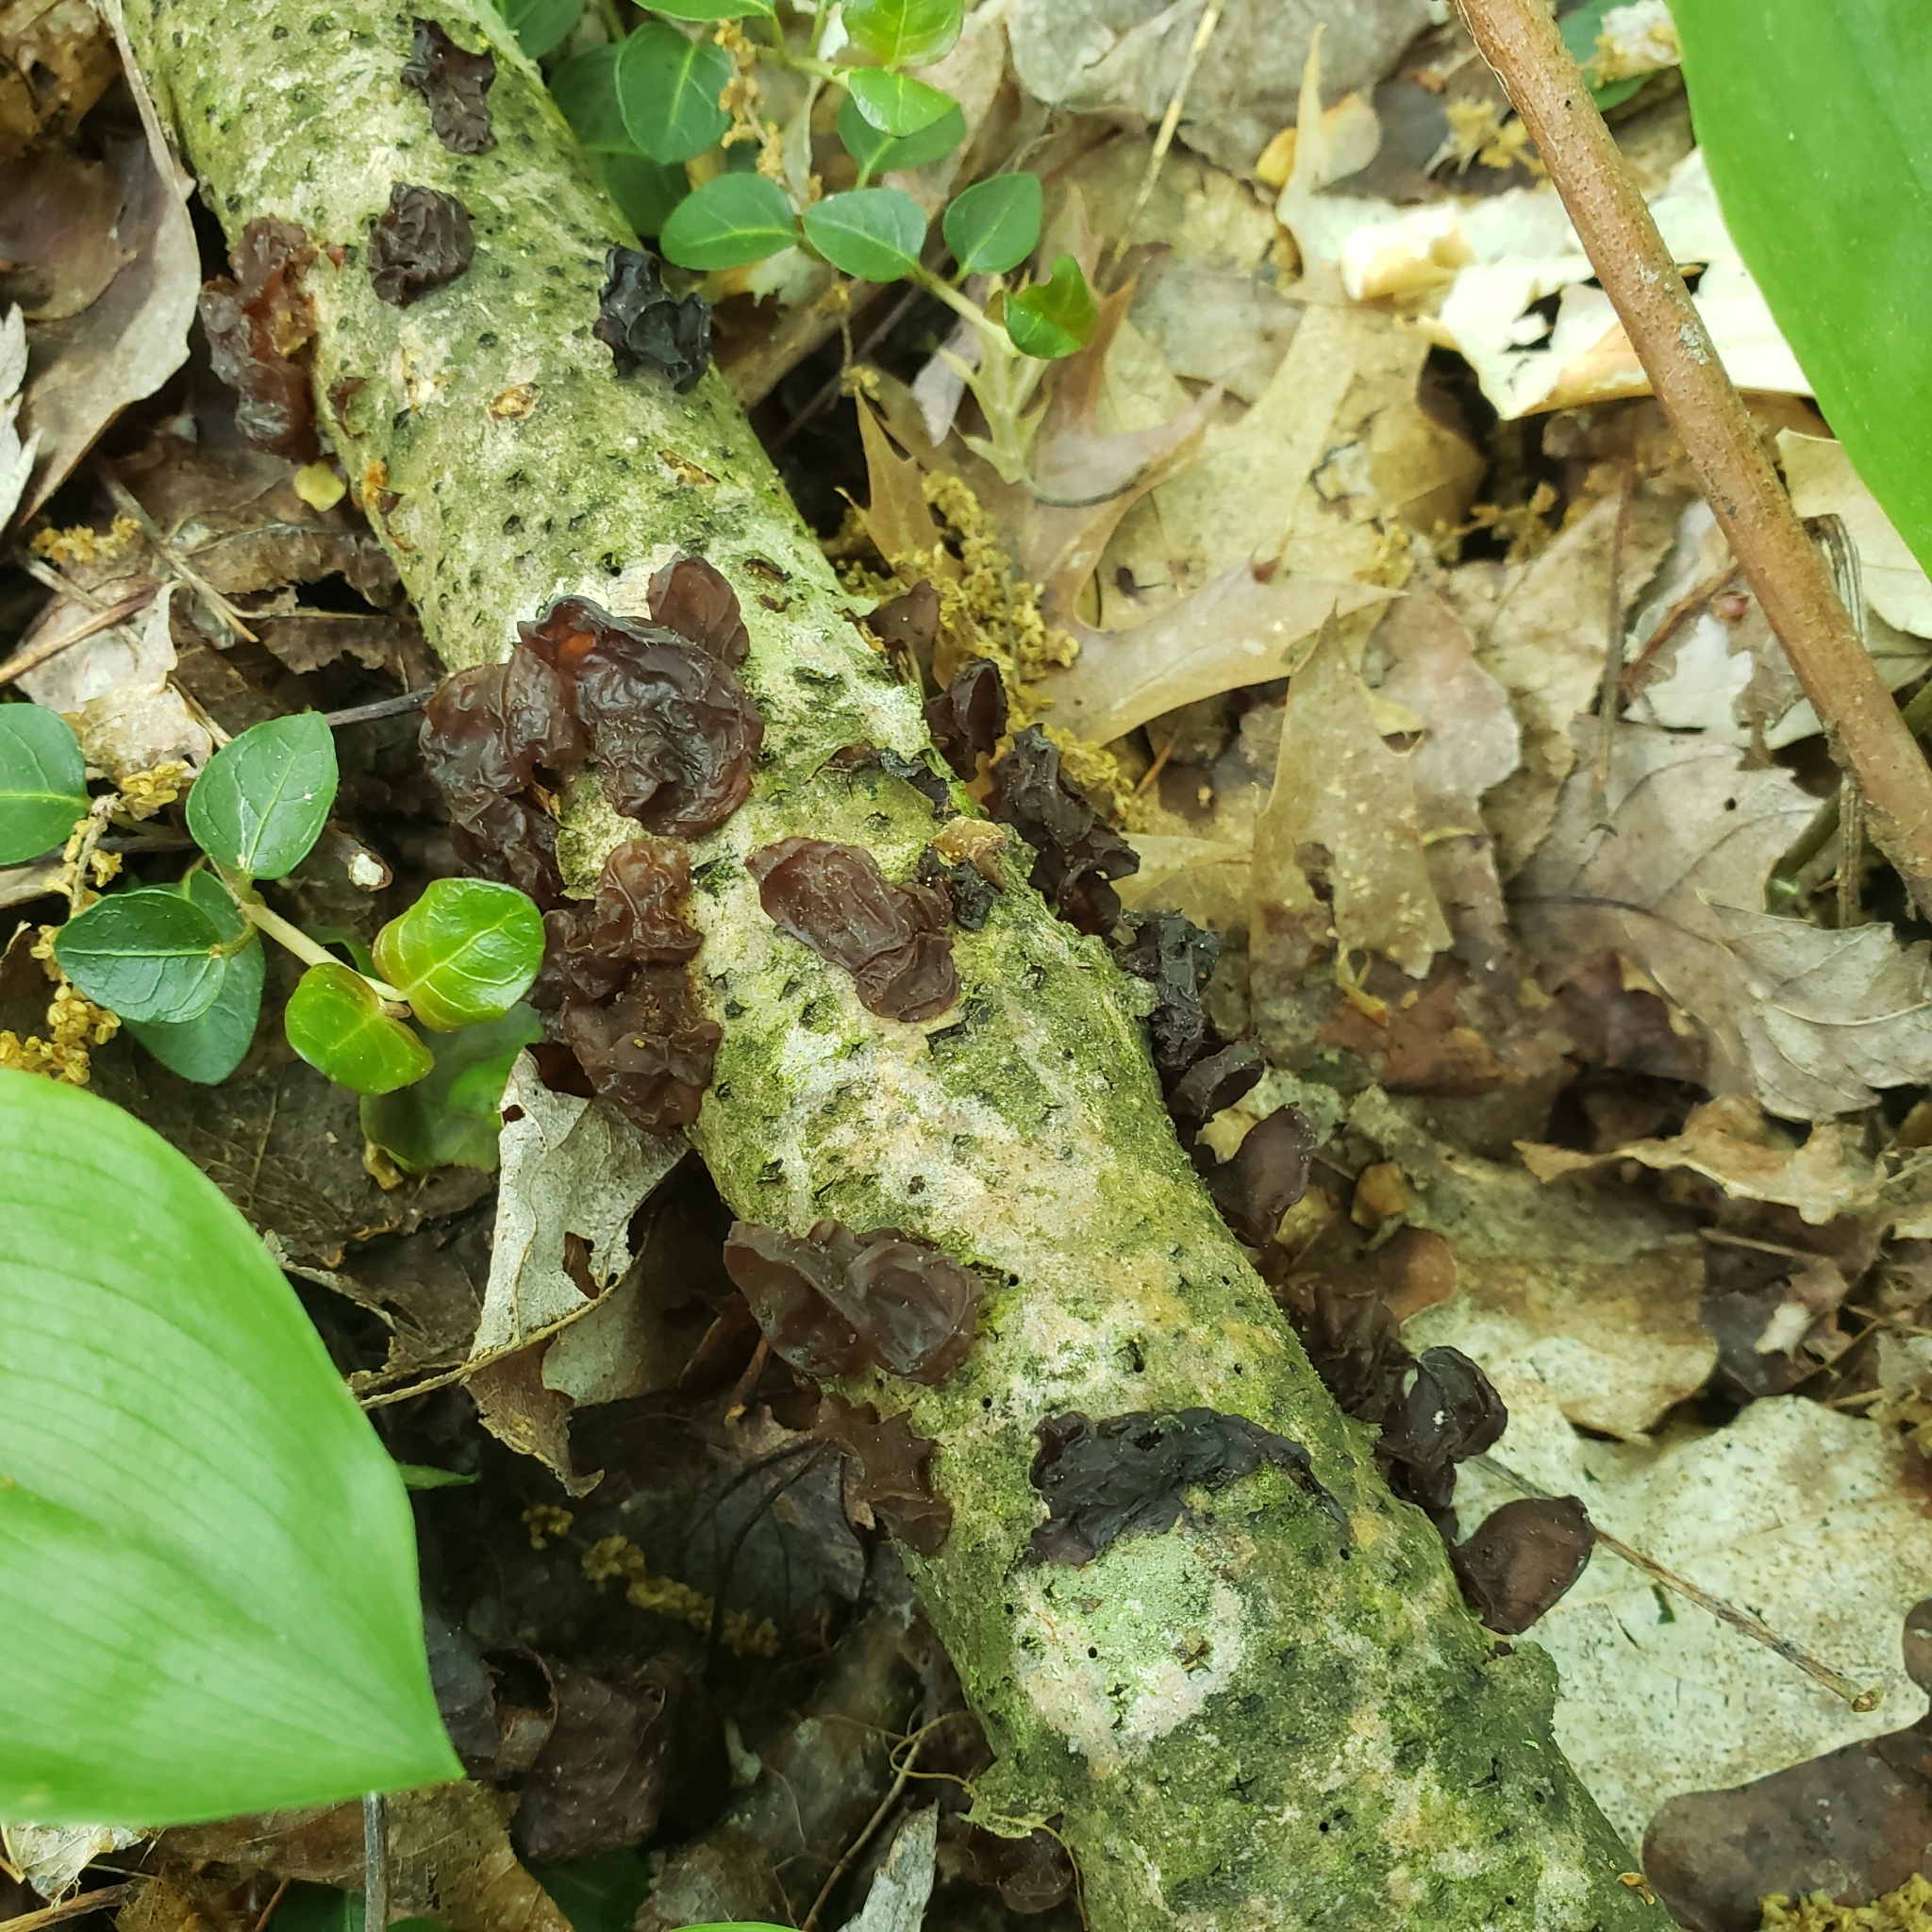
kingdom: Fungi
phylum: Basidiomycota
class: Agaricomycetes
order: Auriculariales
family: Auriculariaceae
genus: Exidia
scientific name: Exidia
